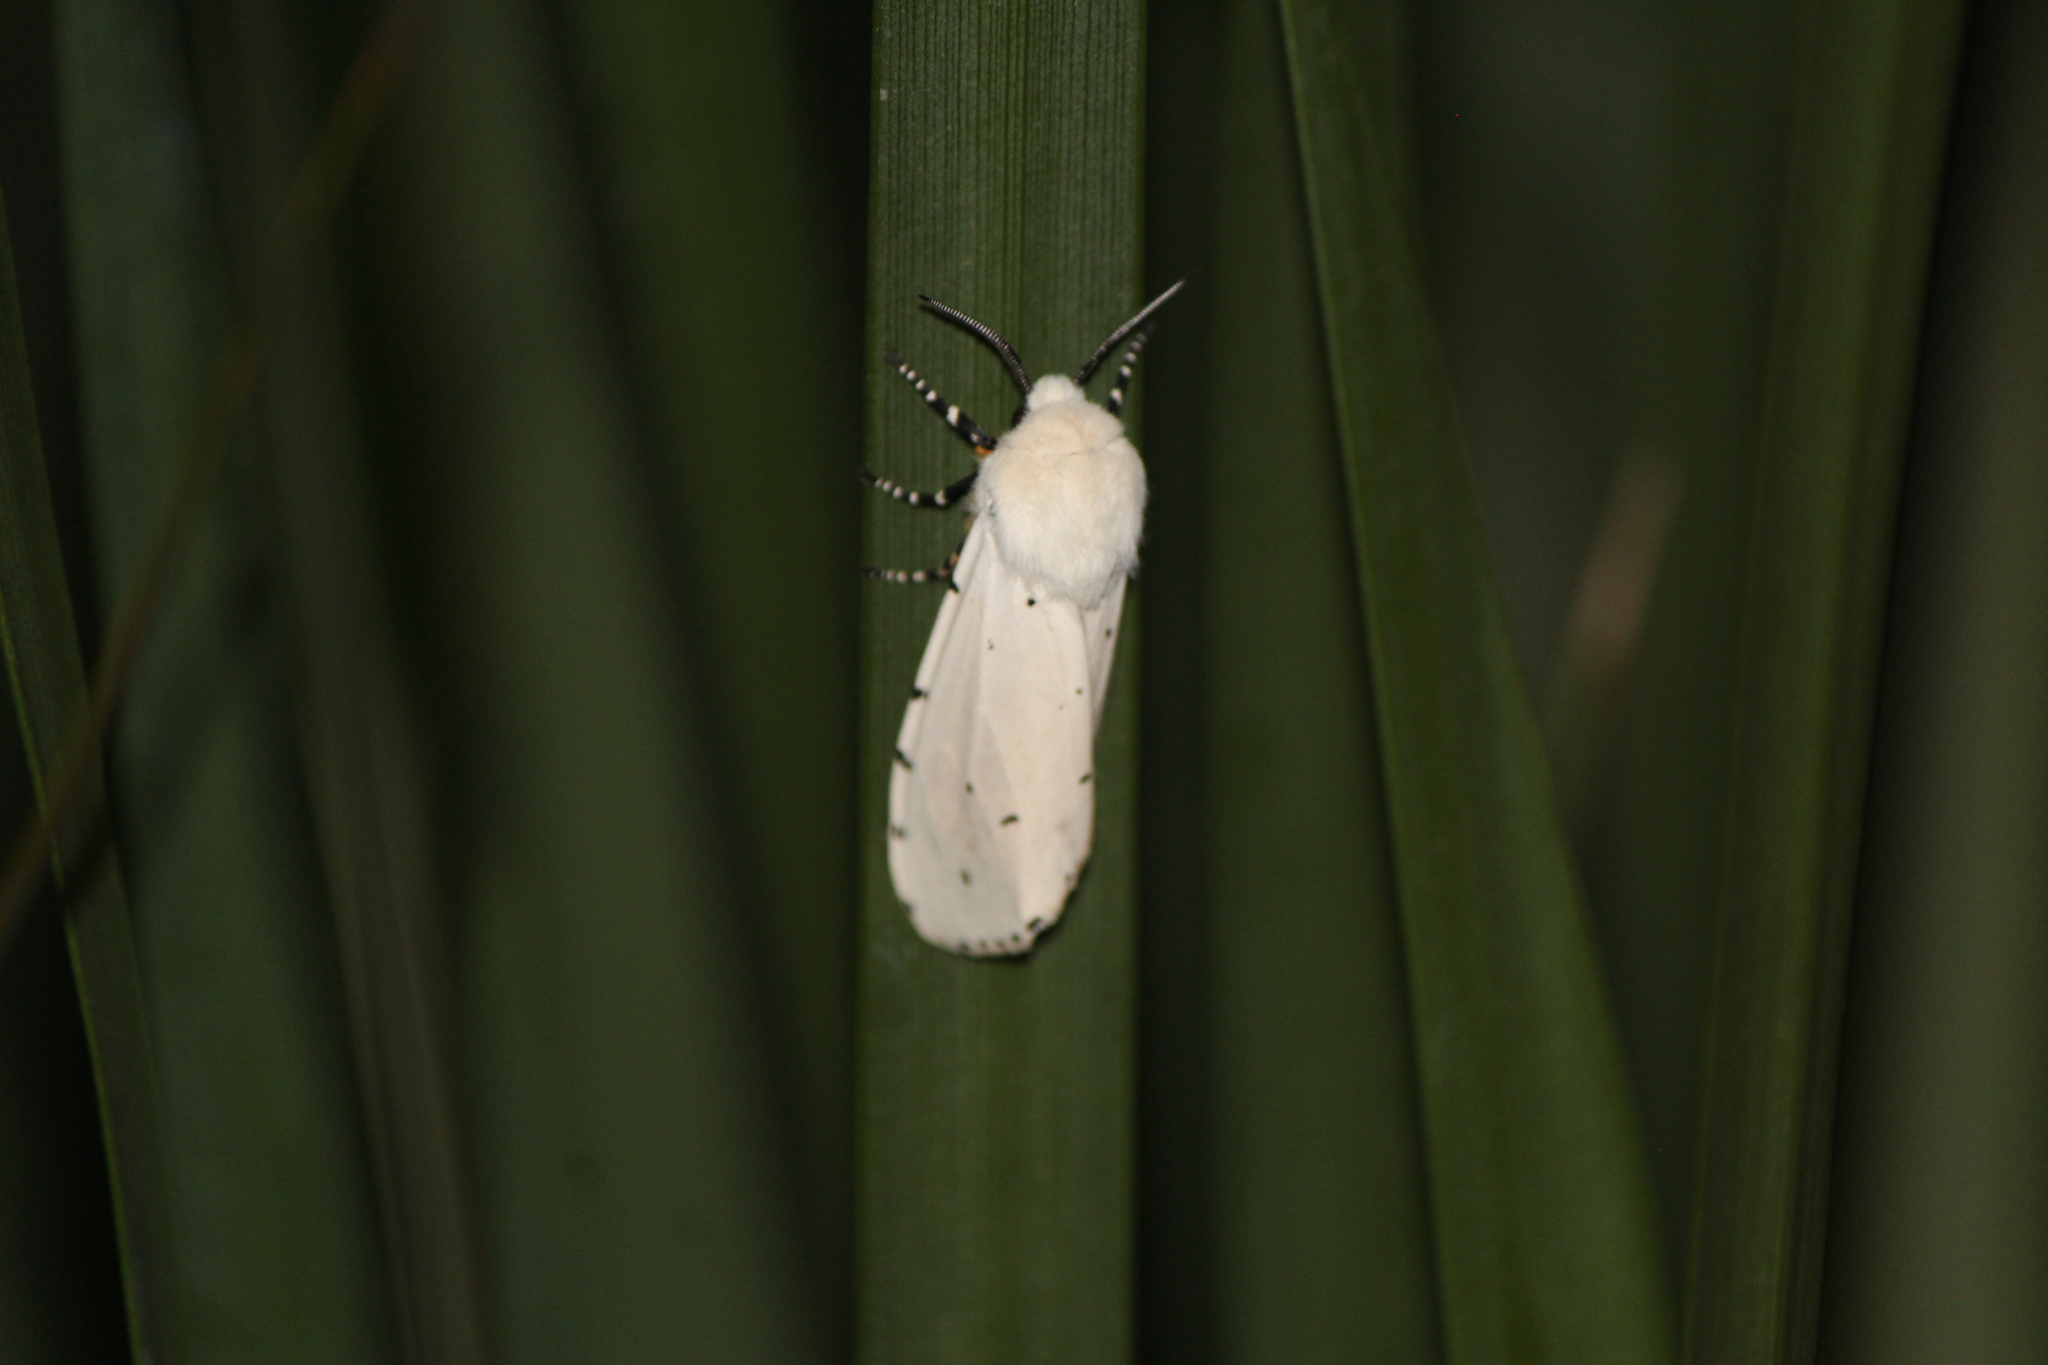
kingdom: Animalia
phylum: Arthropoda
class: Insecta
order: Lepidoptera
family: Erebidae
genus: Estigmene
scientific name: Estigmene acrea
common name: Salt marsh moth
